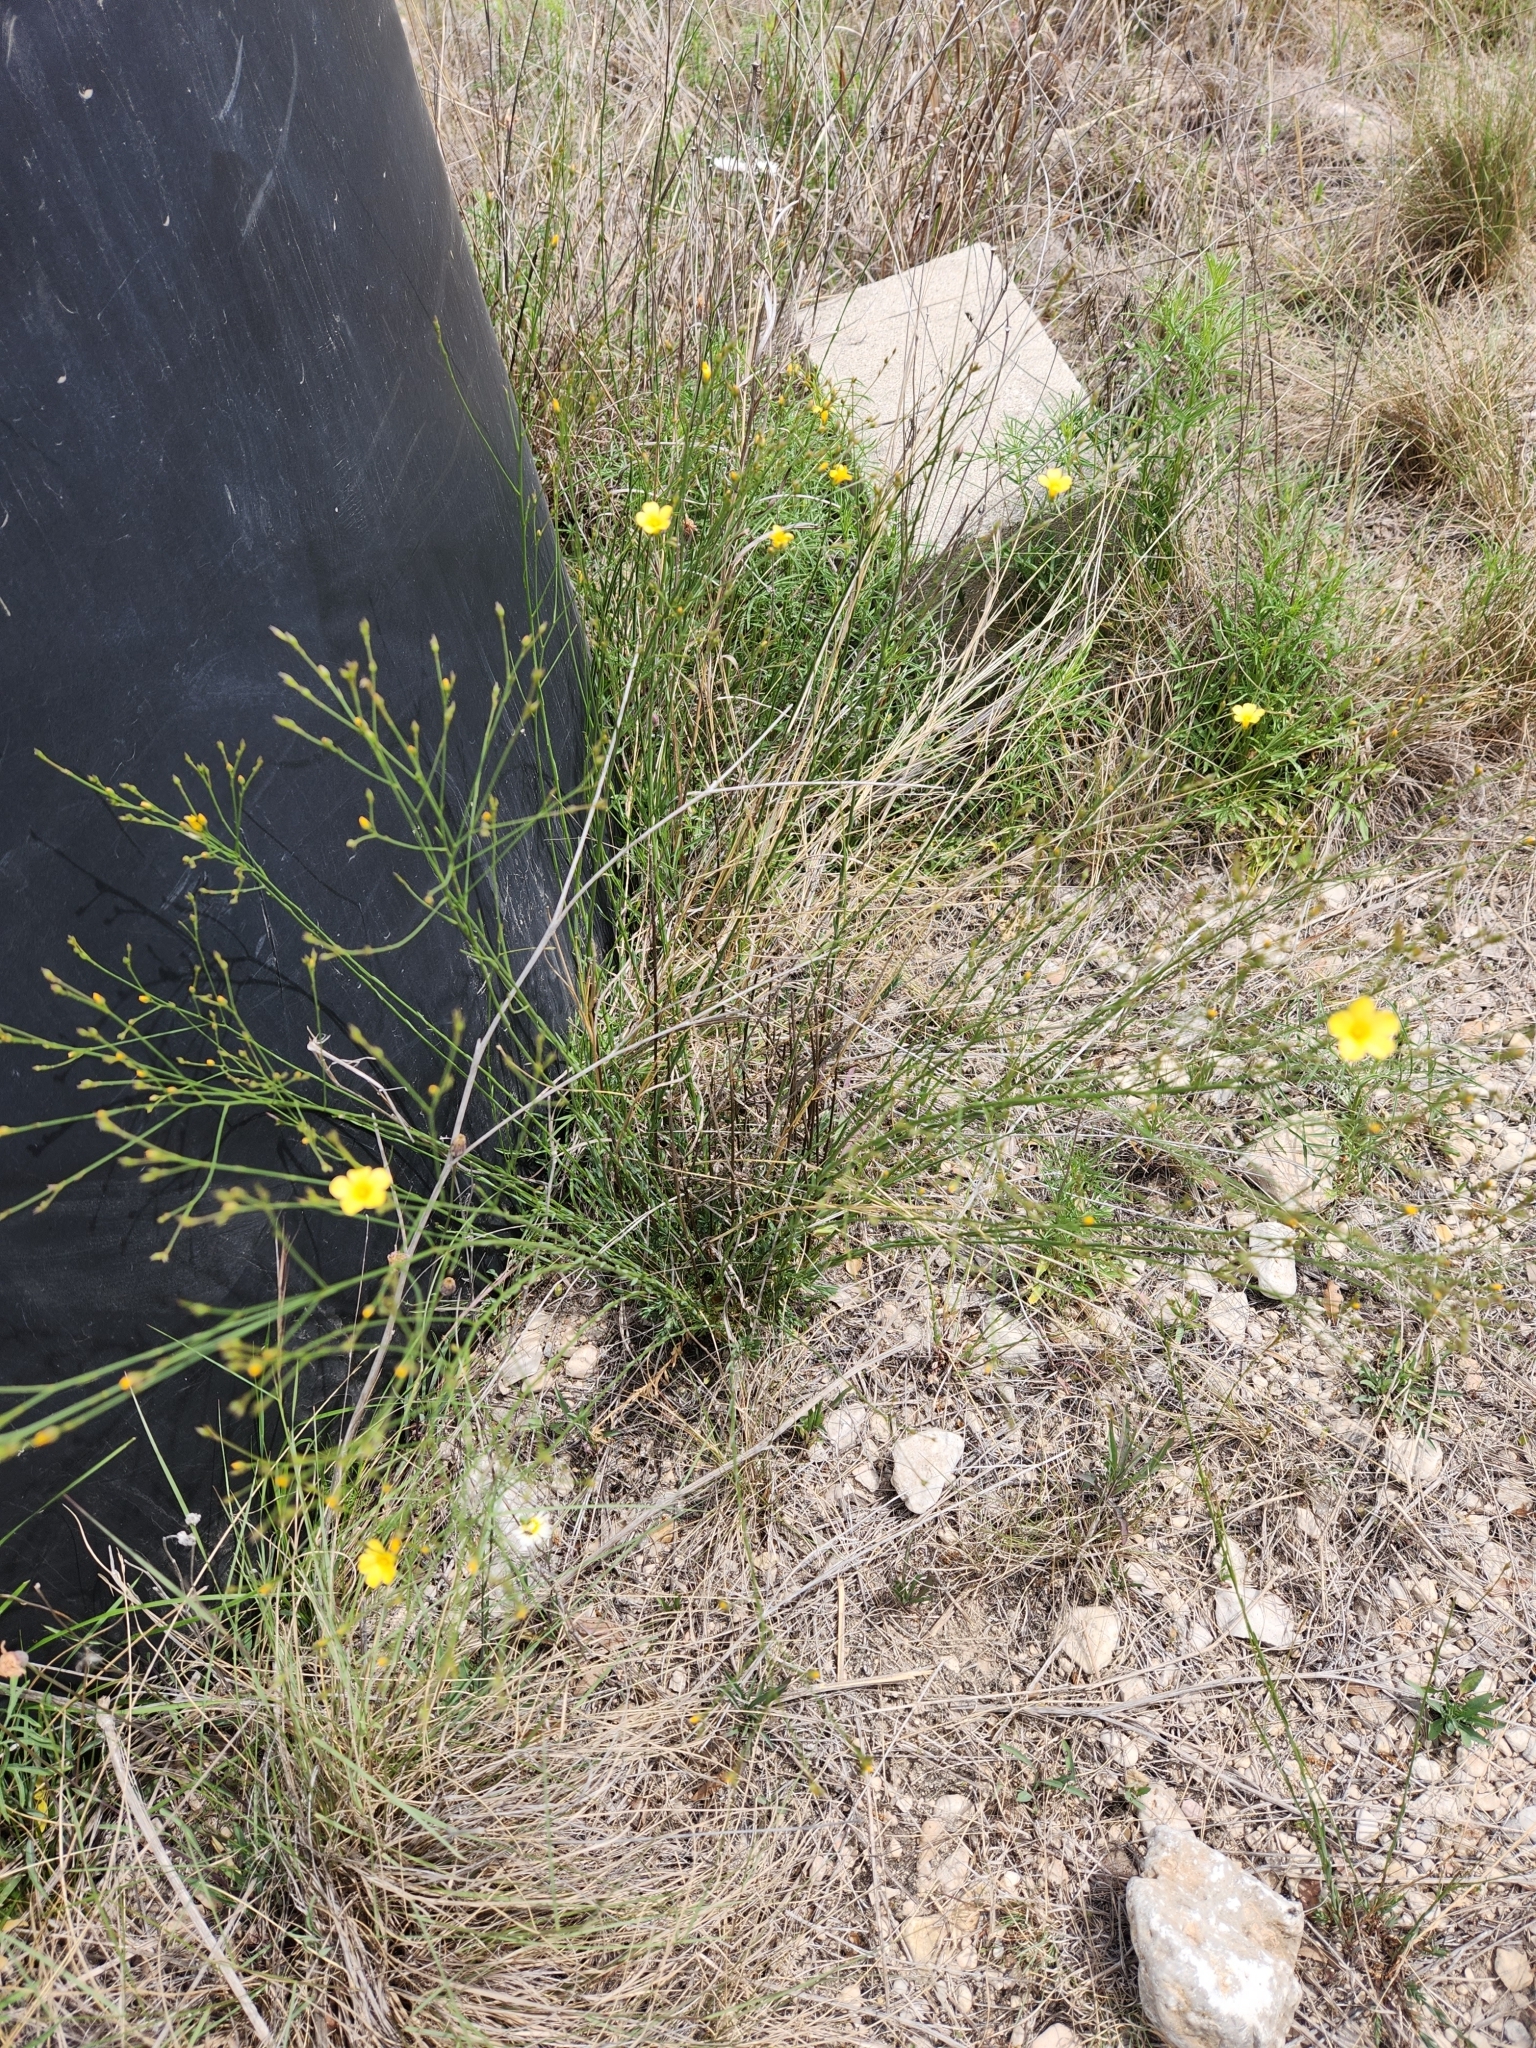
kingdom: Plantae
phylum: Tracheophyta
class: Magnoliopsida
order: Malpighiales
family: Linaceae
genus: Linum
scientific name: Linum rupestre
